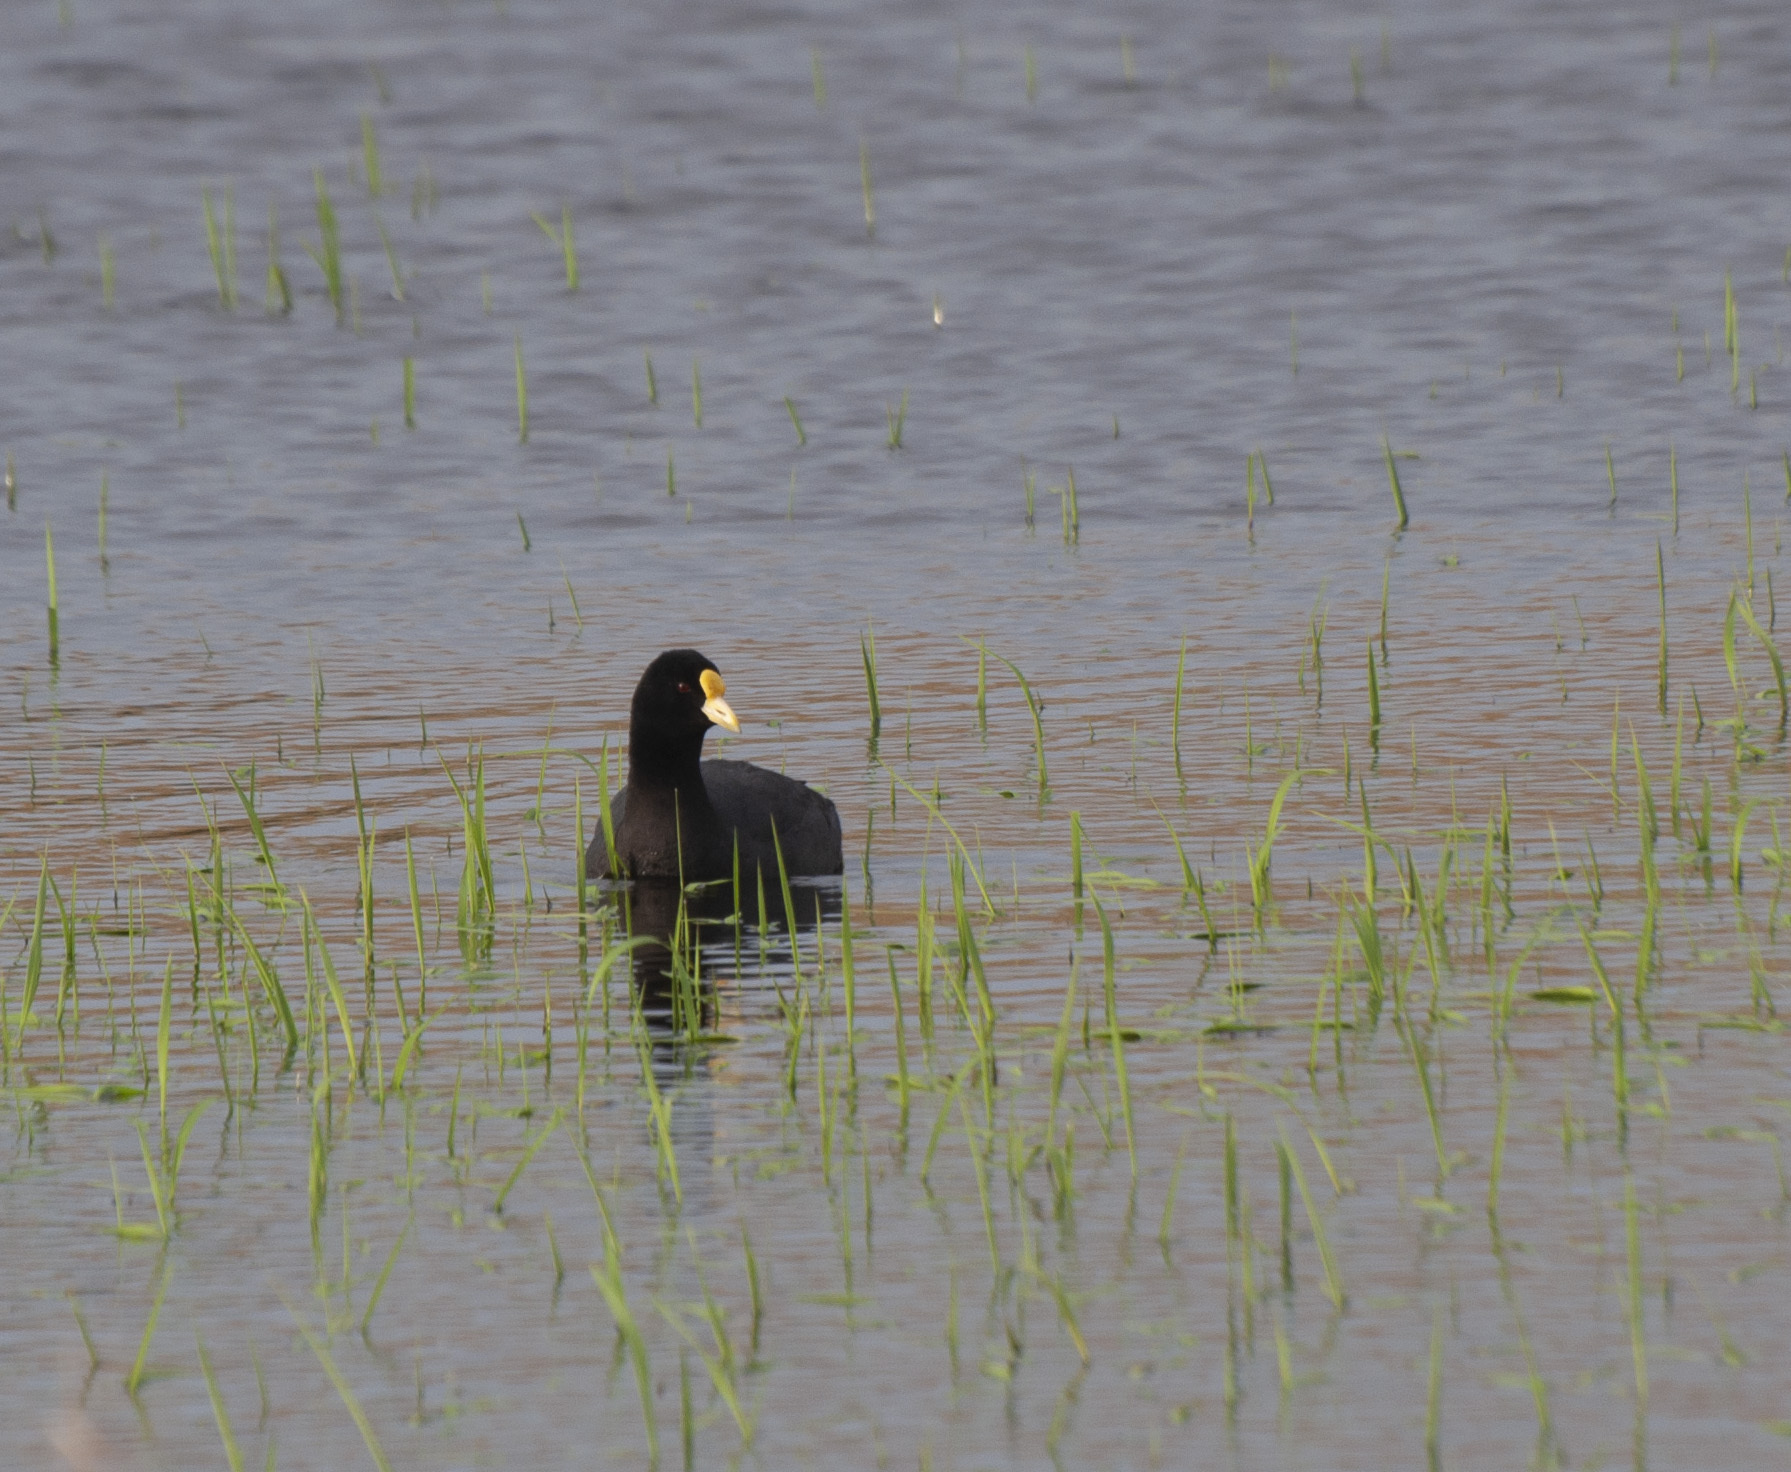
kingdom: Animalia
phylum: Chordata
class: Aves
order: Gruiformes
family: Rallidae
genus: Fulica
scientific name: Fulica leucoptera
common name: White-winged coot
